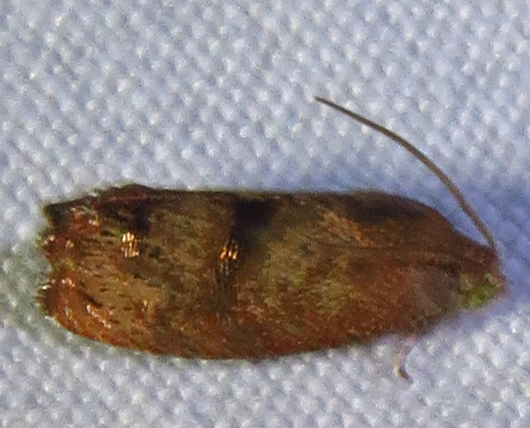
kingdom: Animalia
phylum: Arthropoda
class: Insecta
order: Lepidoptera
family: Tortricidae
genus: Cydia
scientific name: Cydia latiferreana
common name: Filbertworm moth
